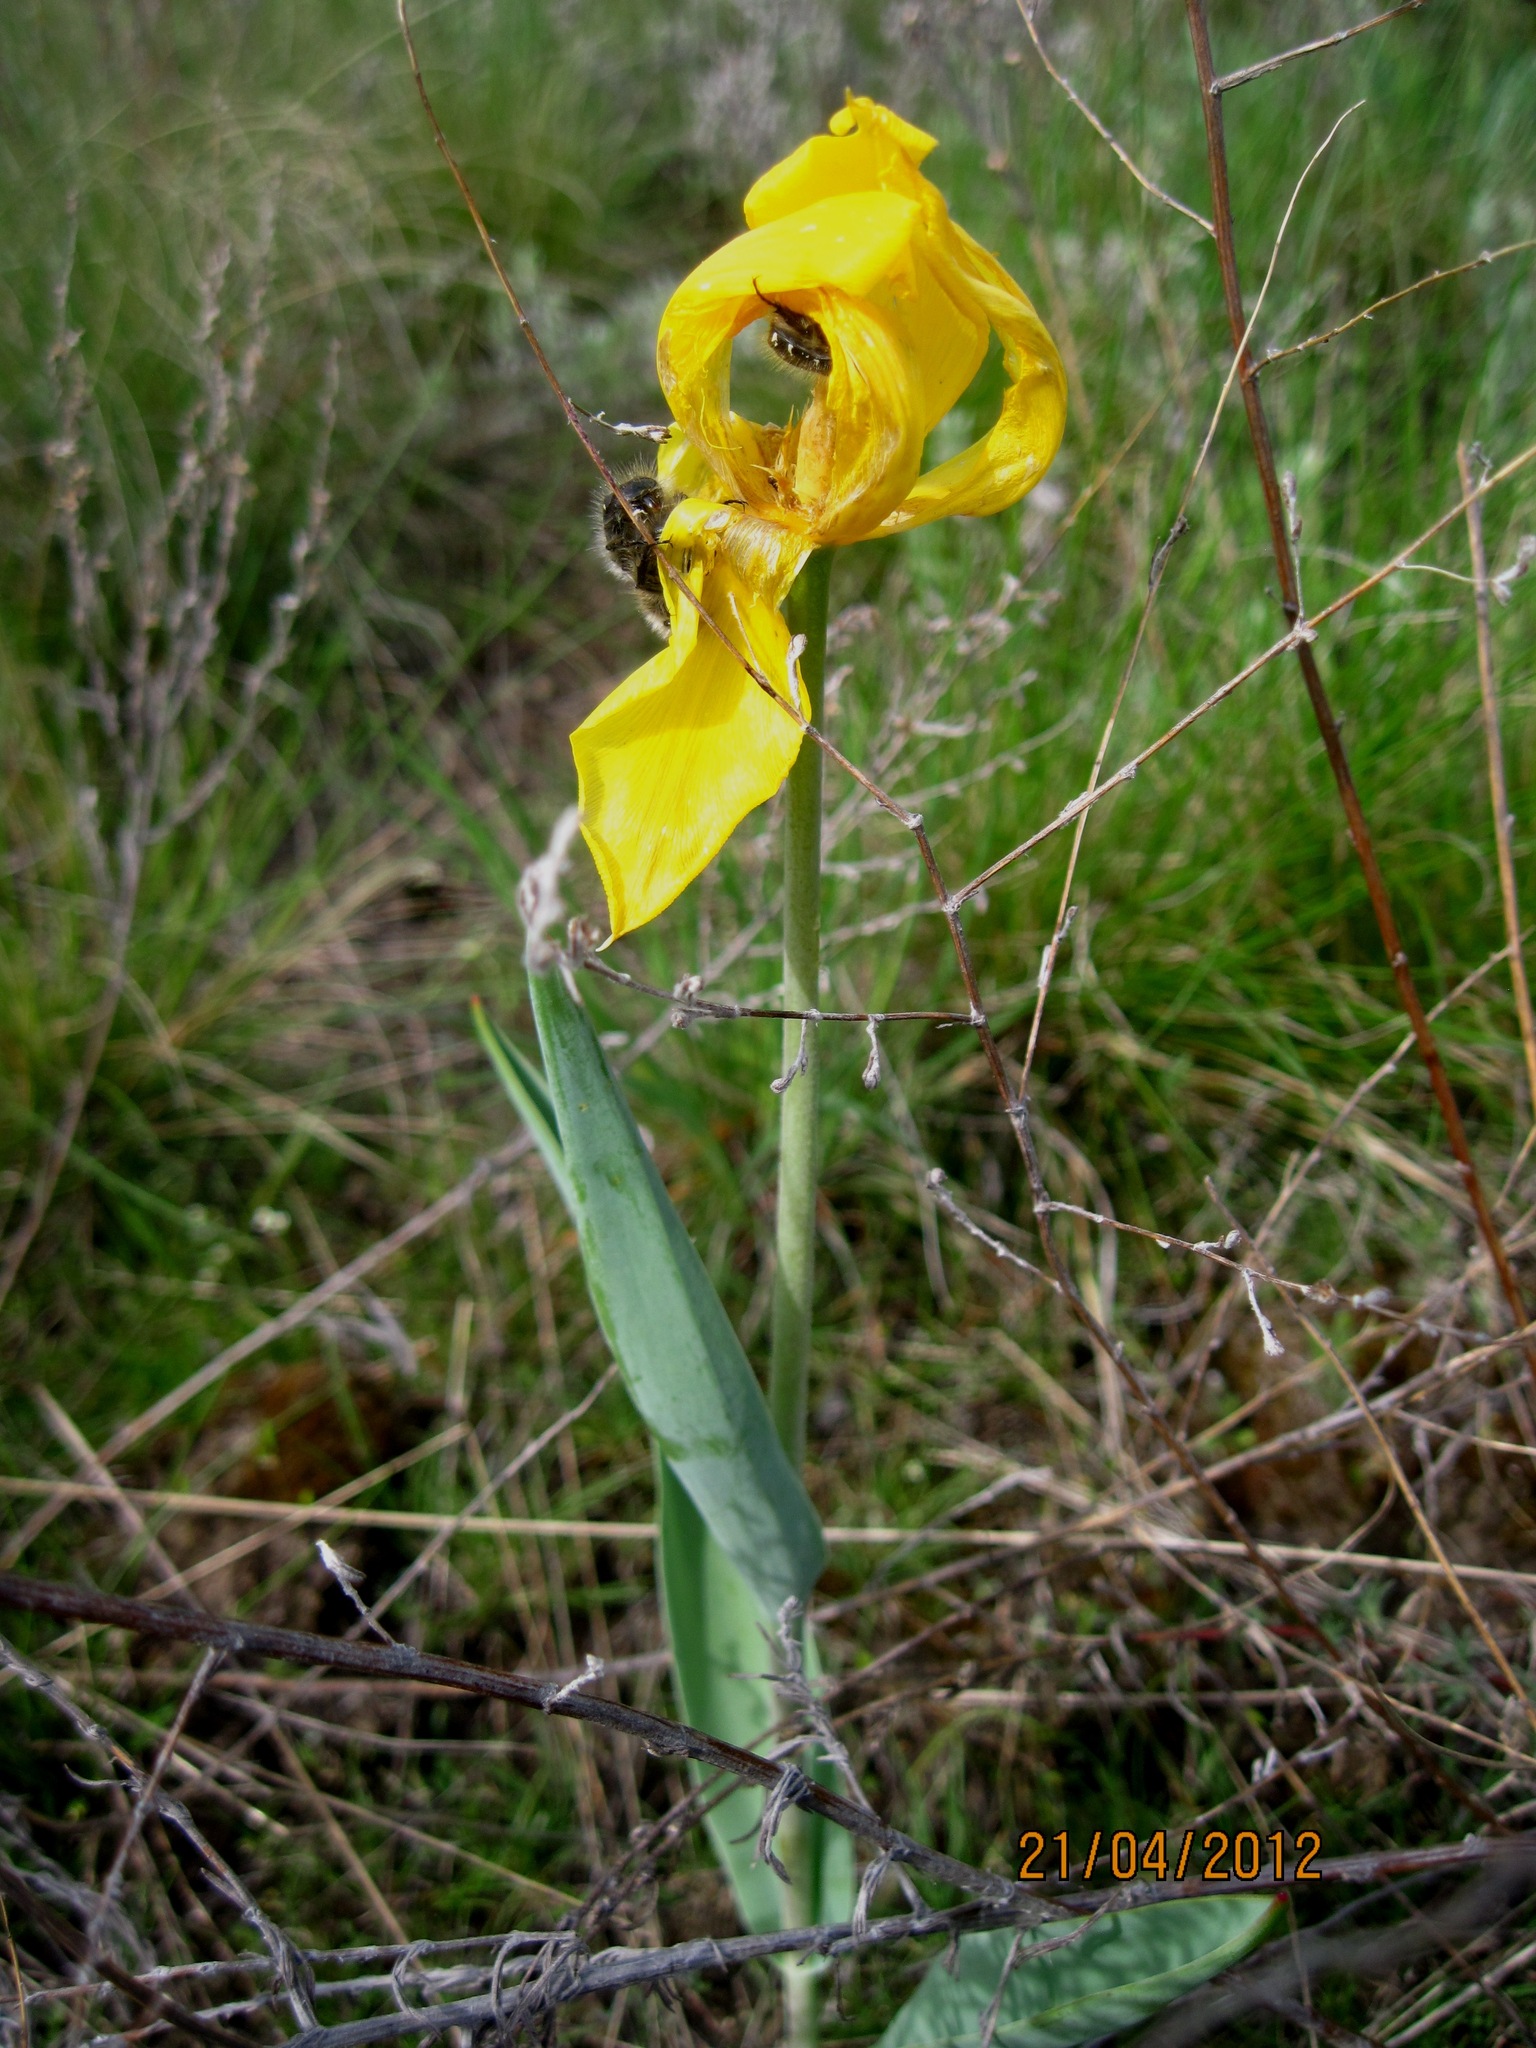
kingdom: Plantae
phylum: Tracheophyta
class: Liliopsida
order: Liliales
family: Liliaceae
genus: Tulipa
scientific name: Tulipa suaveolens
